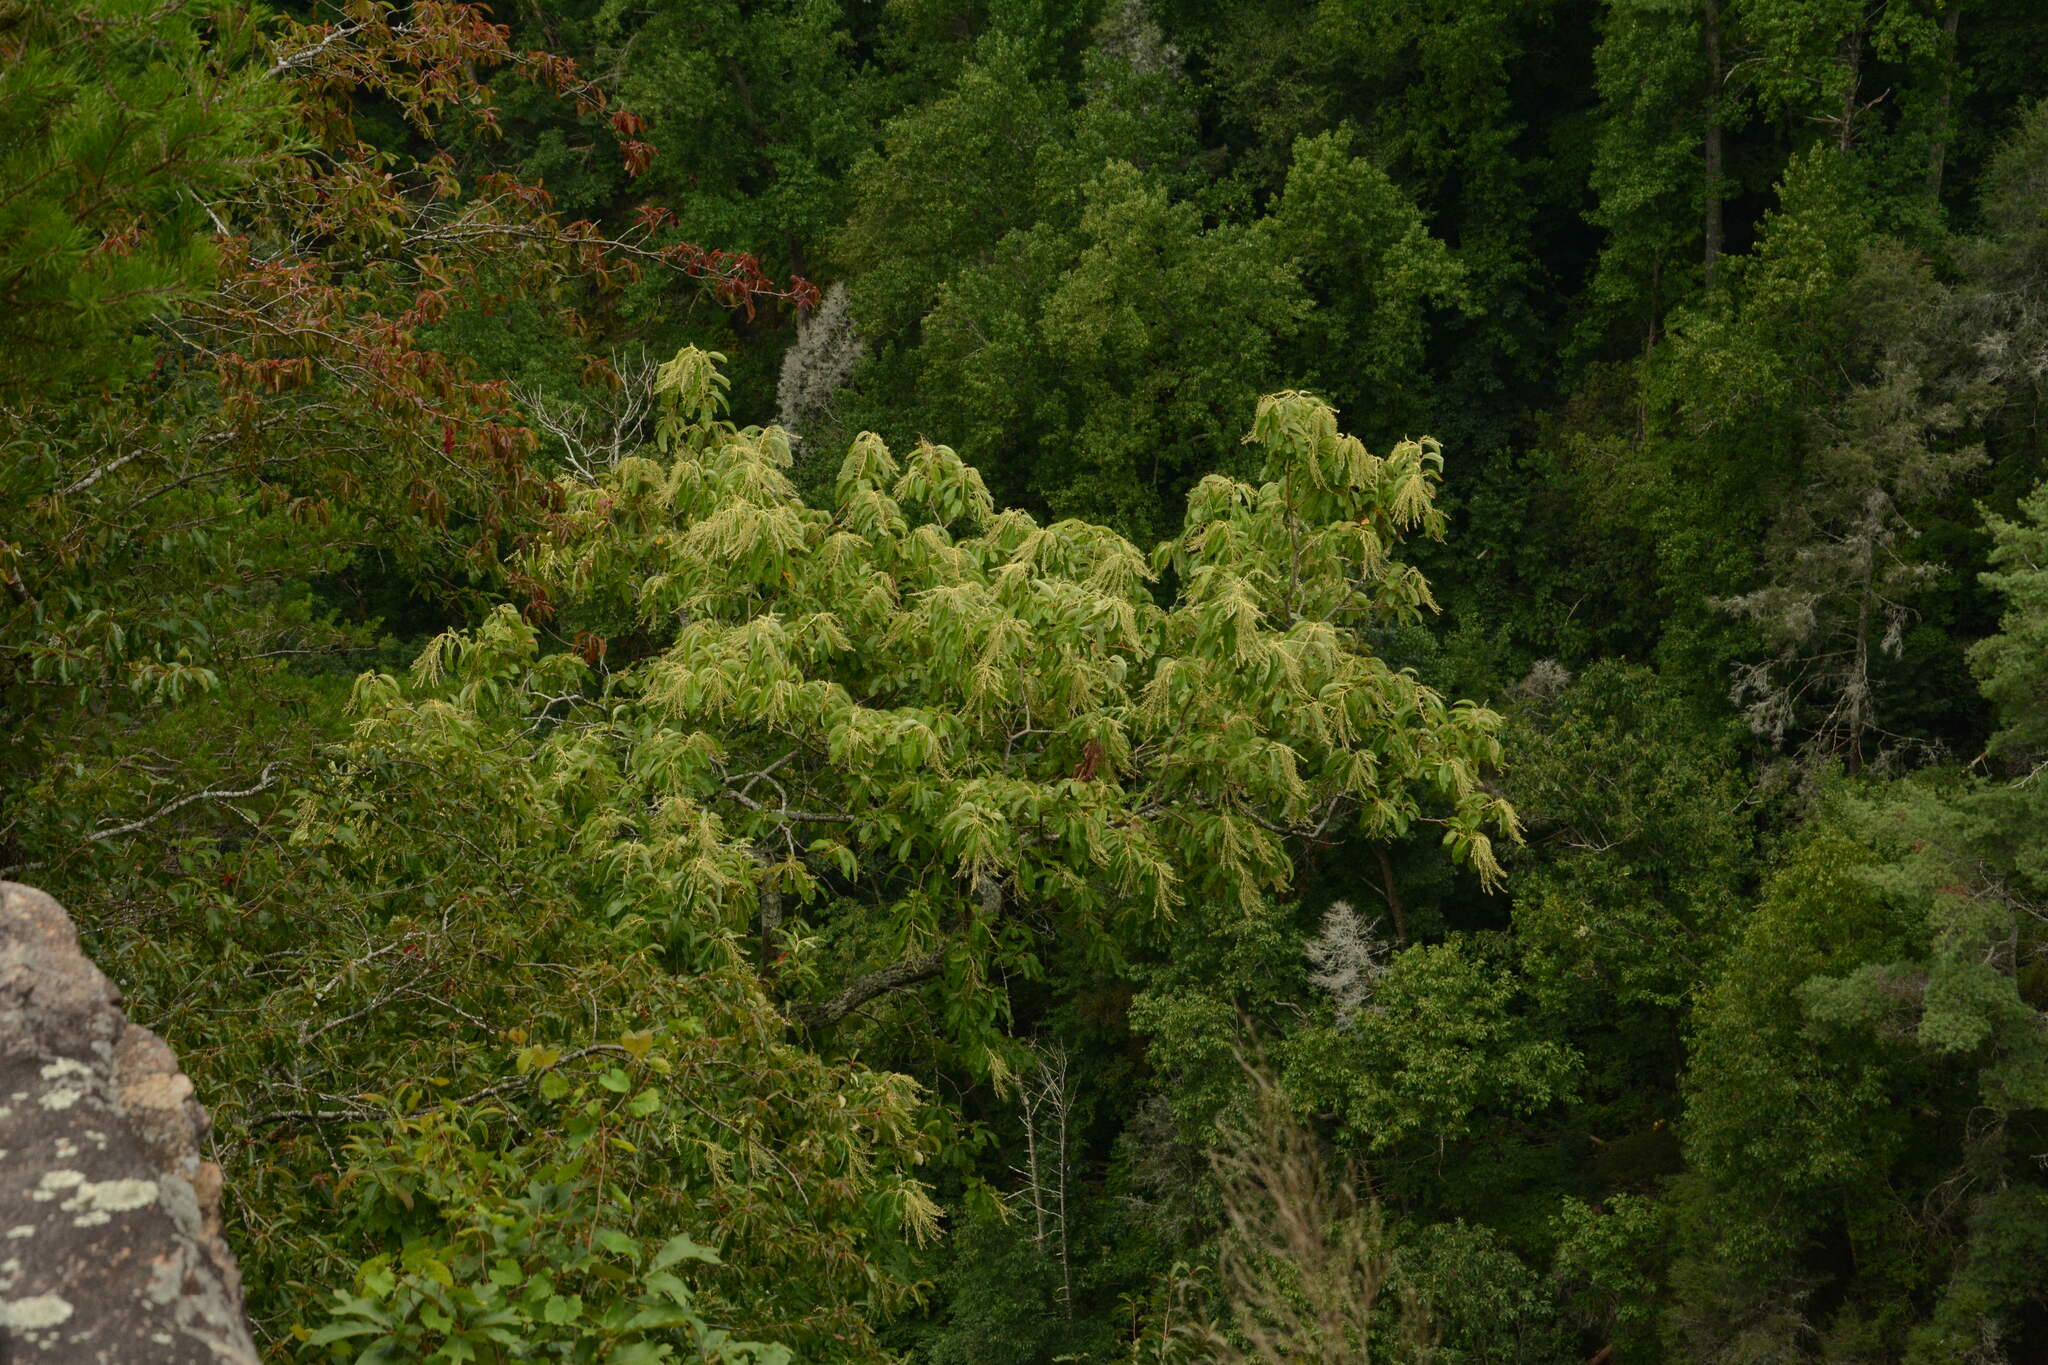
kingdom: Plantae
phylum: Tracheophyta
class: Magnoliopsida
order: Ericales
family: Ericaceae
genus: Oxydendrum
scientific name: Oxydendrum arboreum
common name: Sourwood
